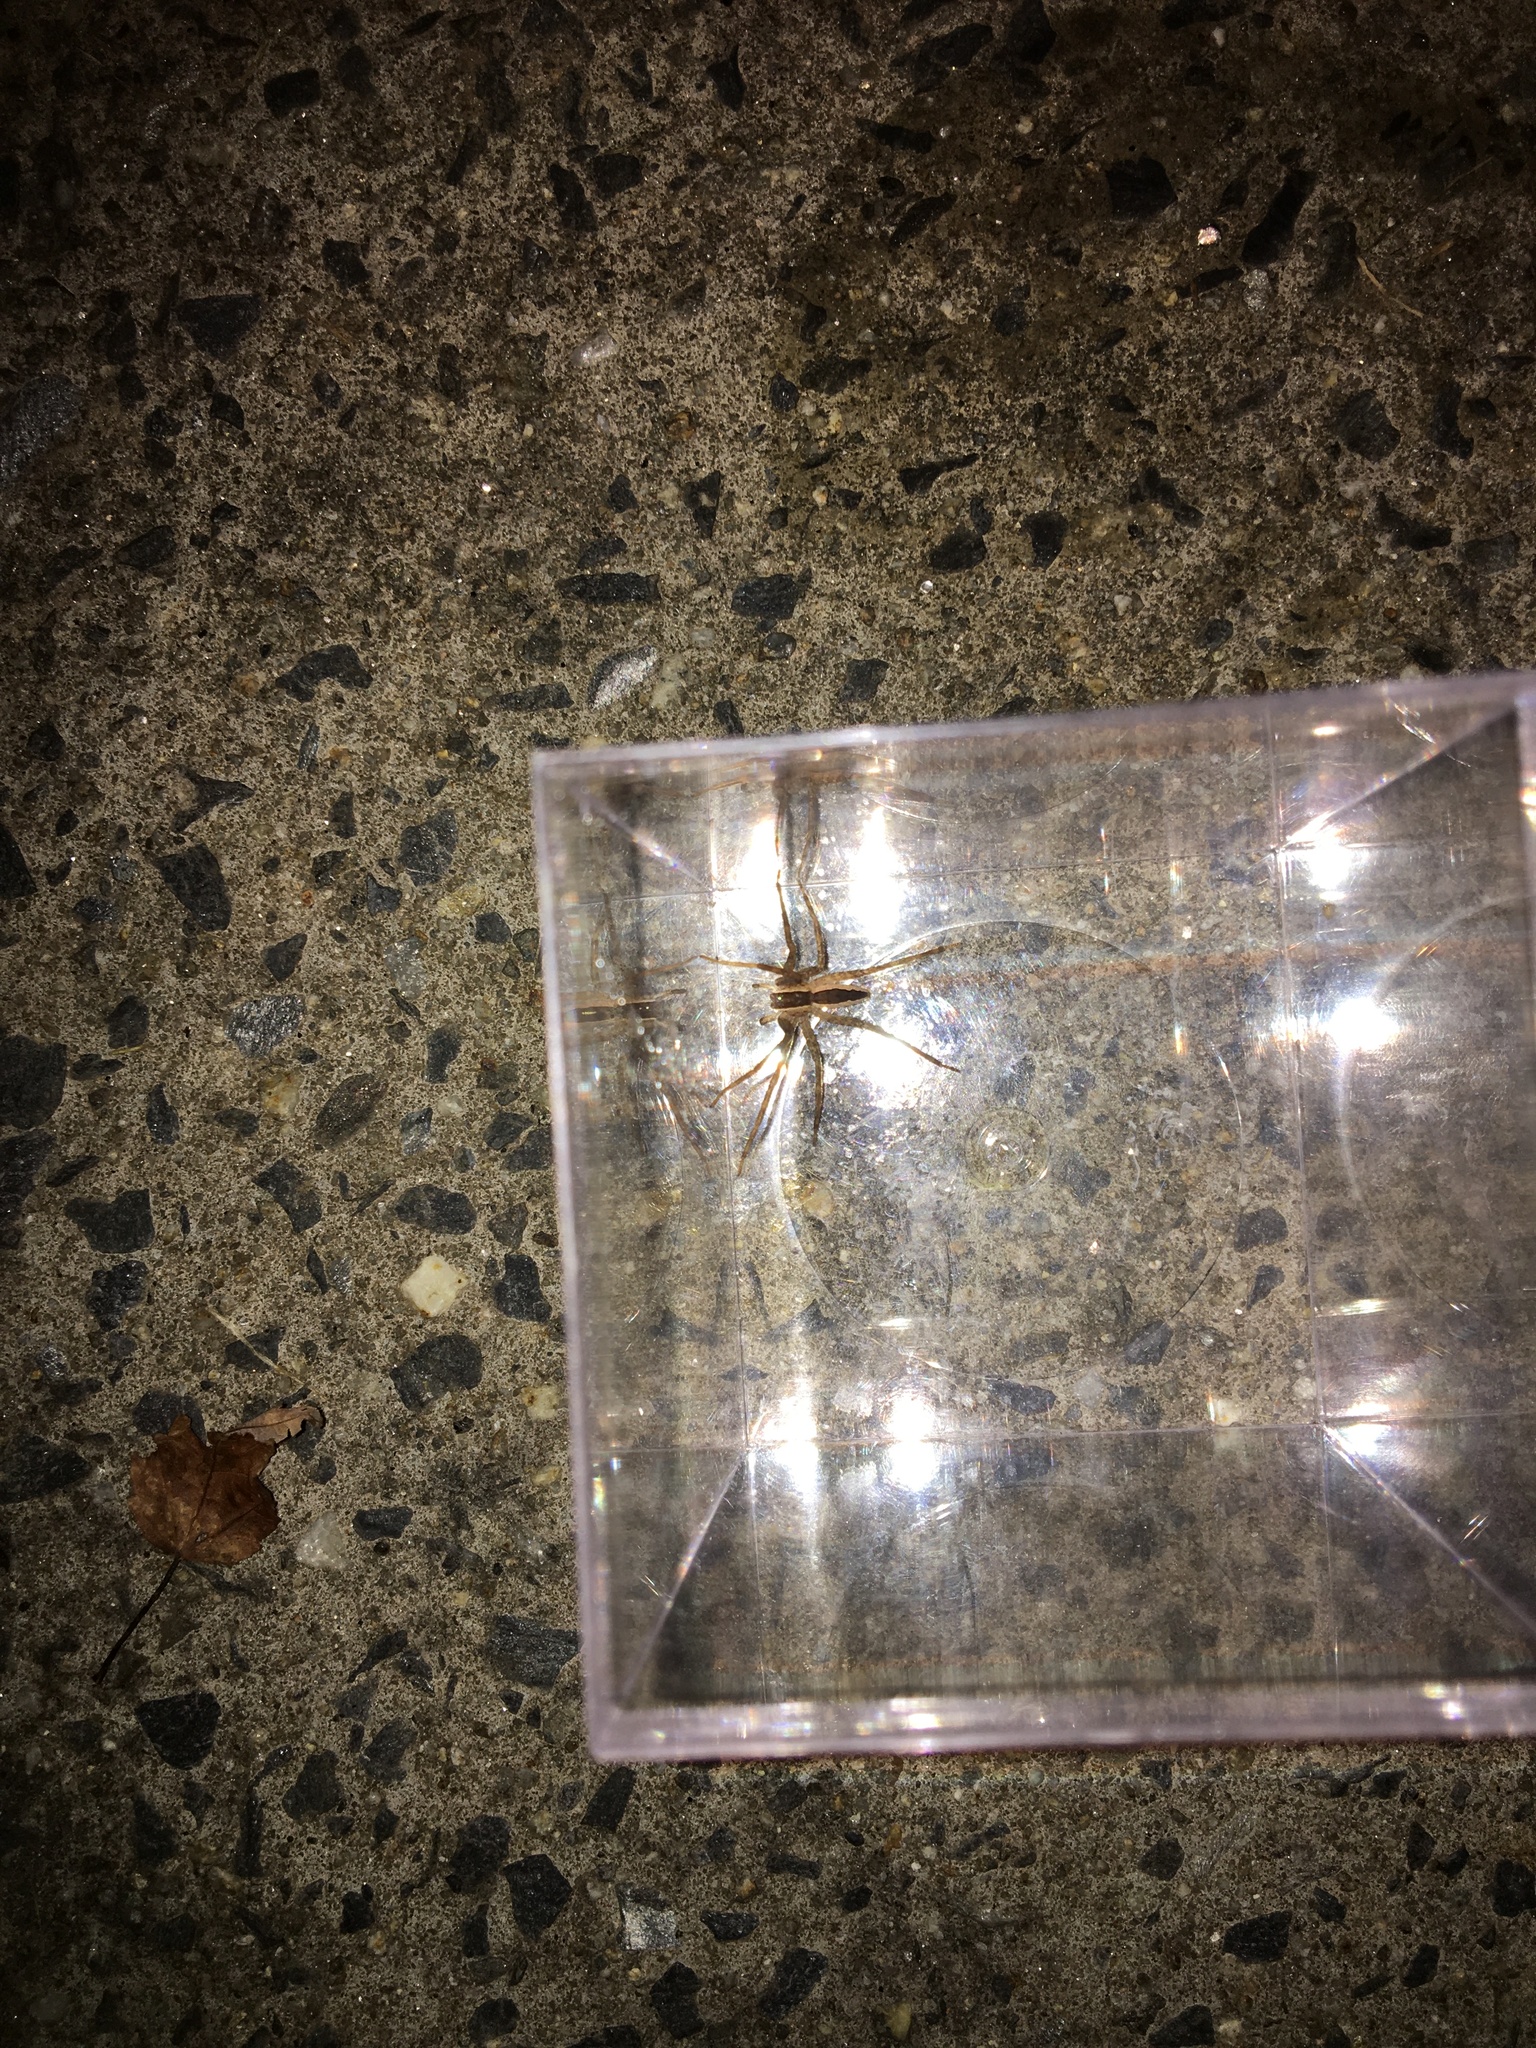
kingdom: Animalia
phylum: Arthropoda
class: Arachnida
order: Araneae
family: Pisauridae
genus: Pisaurina
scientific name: Pisaurina mira
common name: American nursery web spider
